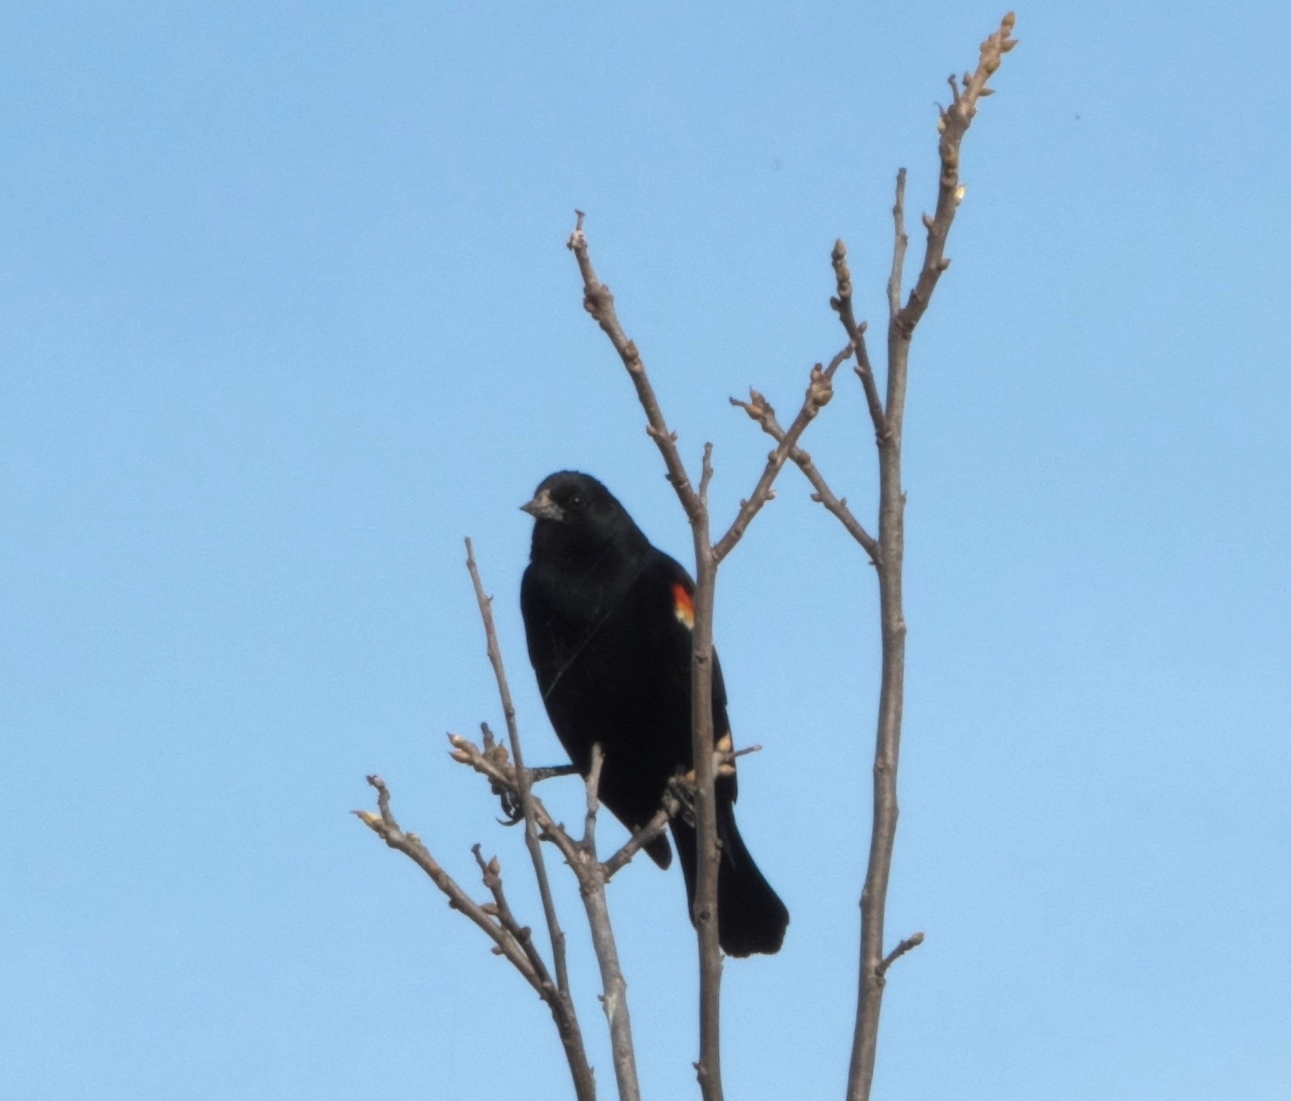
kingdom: Animalia
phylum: Chordata
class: Aves
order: Passeriformes
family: Icteridae
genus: Agelaius
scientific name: Agelaius phoeniceus
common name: Red-winged blackbird
